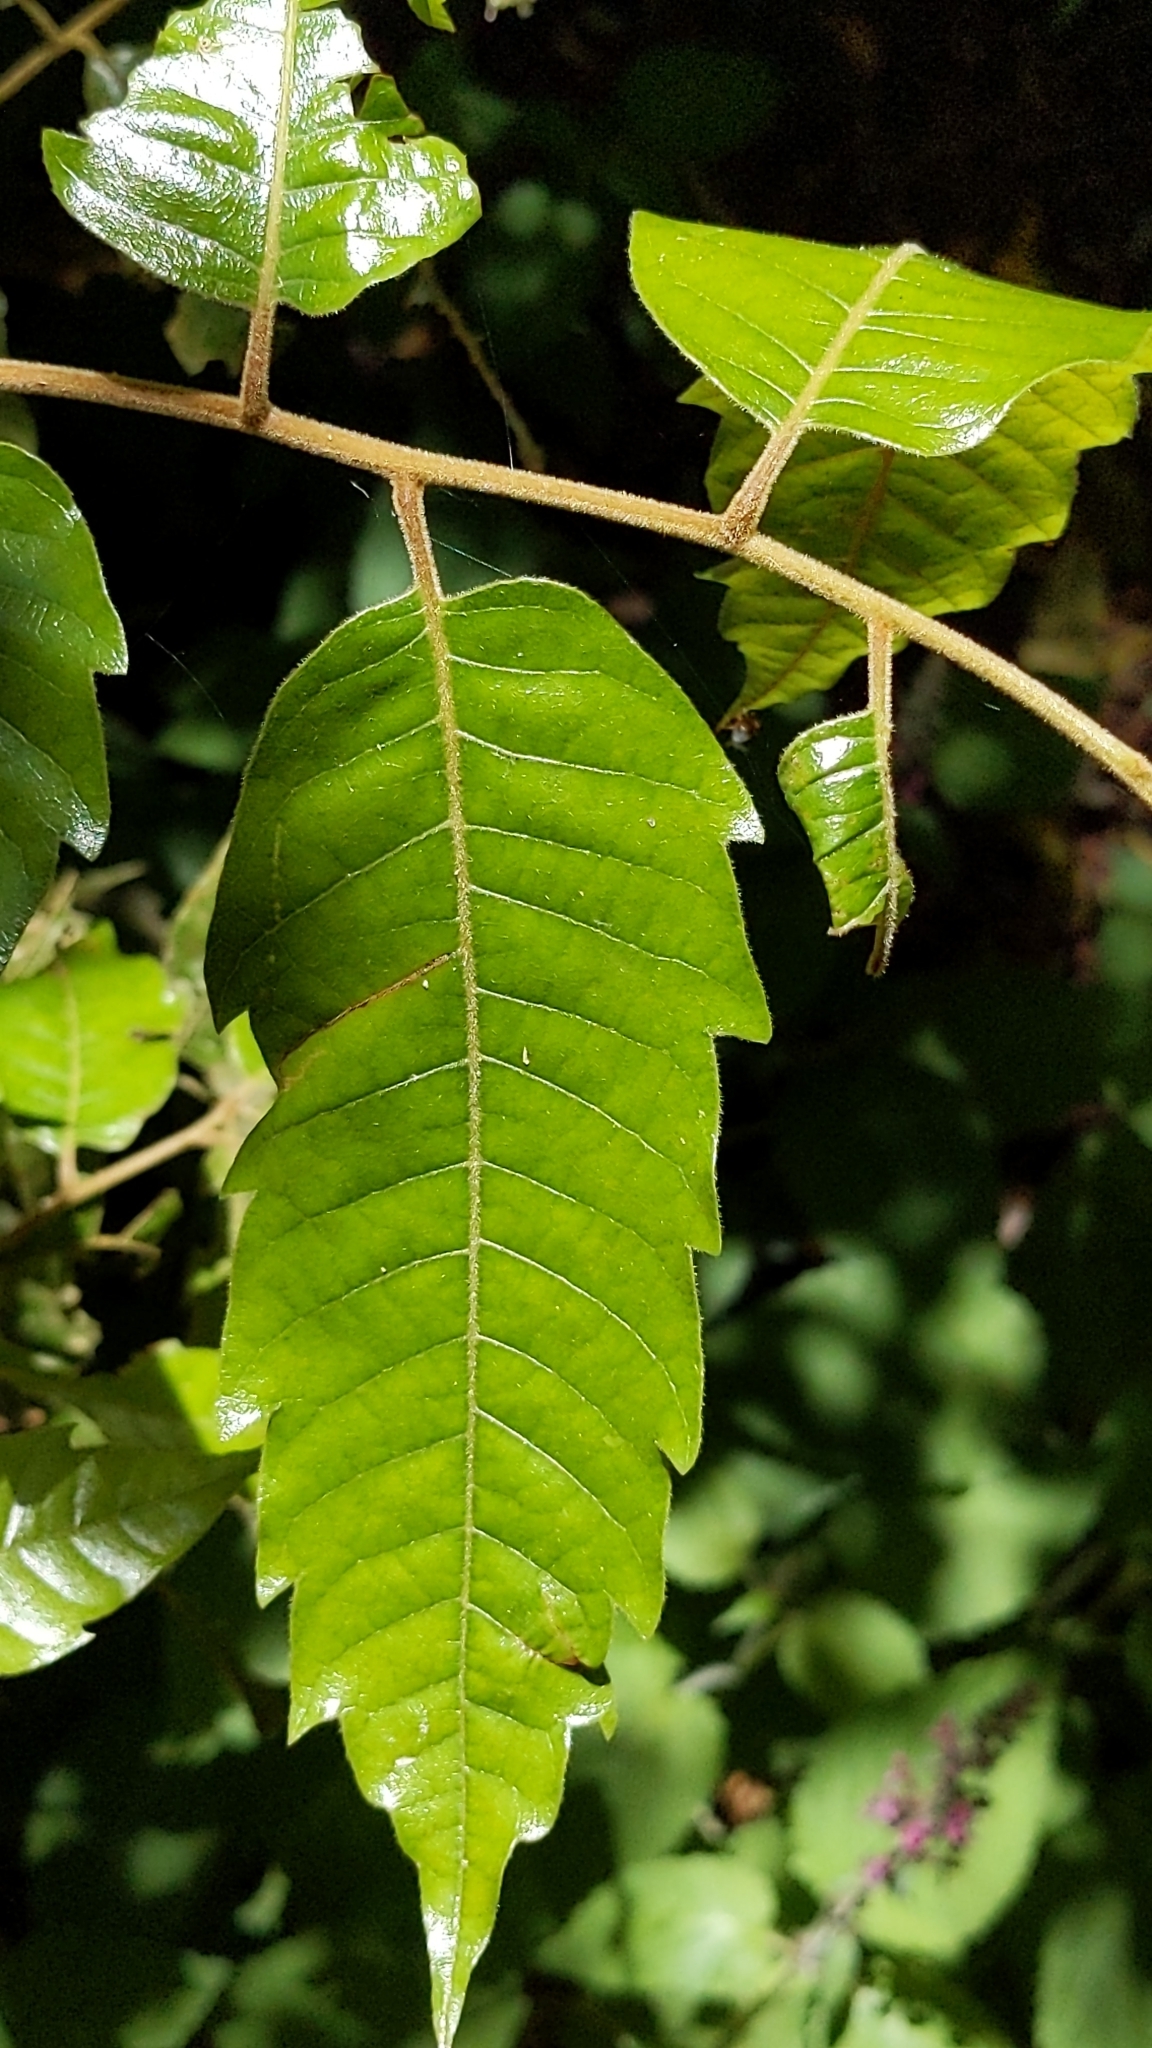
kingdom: Plantae
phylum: Tracheophyta
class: Magnoliopsida
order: Sapindales
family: Sapindaceae
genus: Alectryon
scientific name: Alectryon excelsus
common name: Three kings titoki
